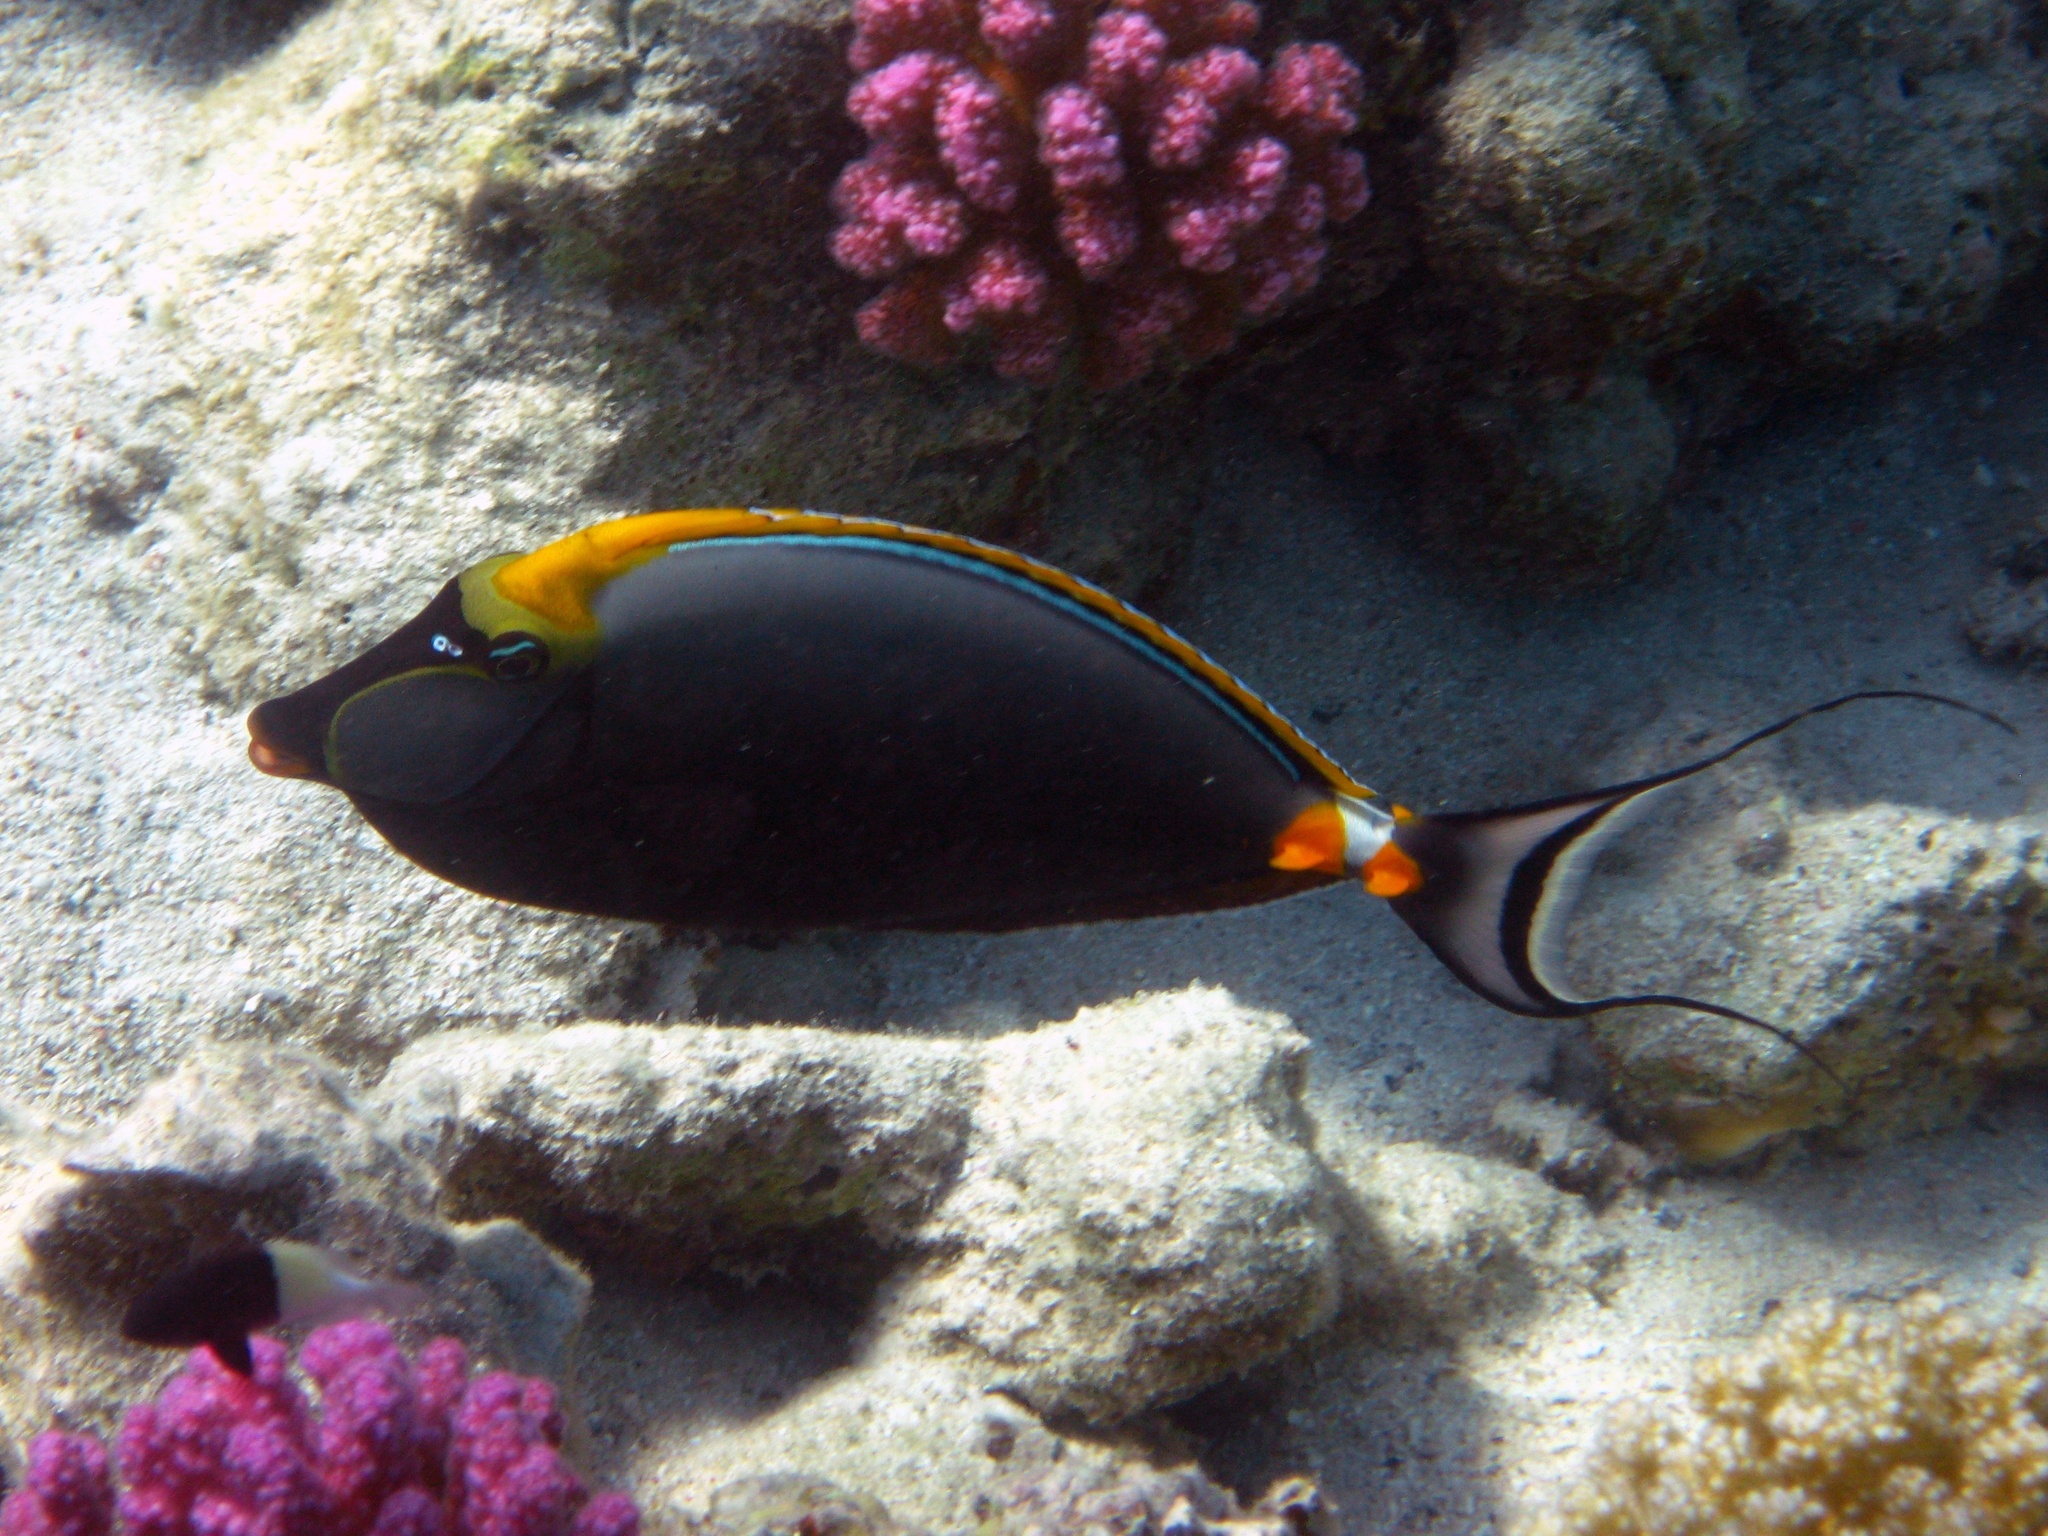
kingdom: Animalia
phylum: Chordata
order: Perciformes
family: Acanthuridae
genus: Naso
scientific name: Naso elegans
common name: Orangespine unicornfish
